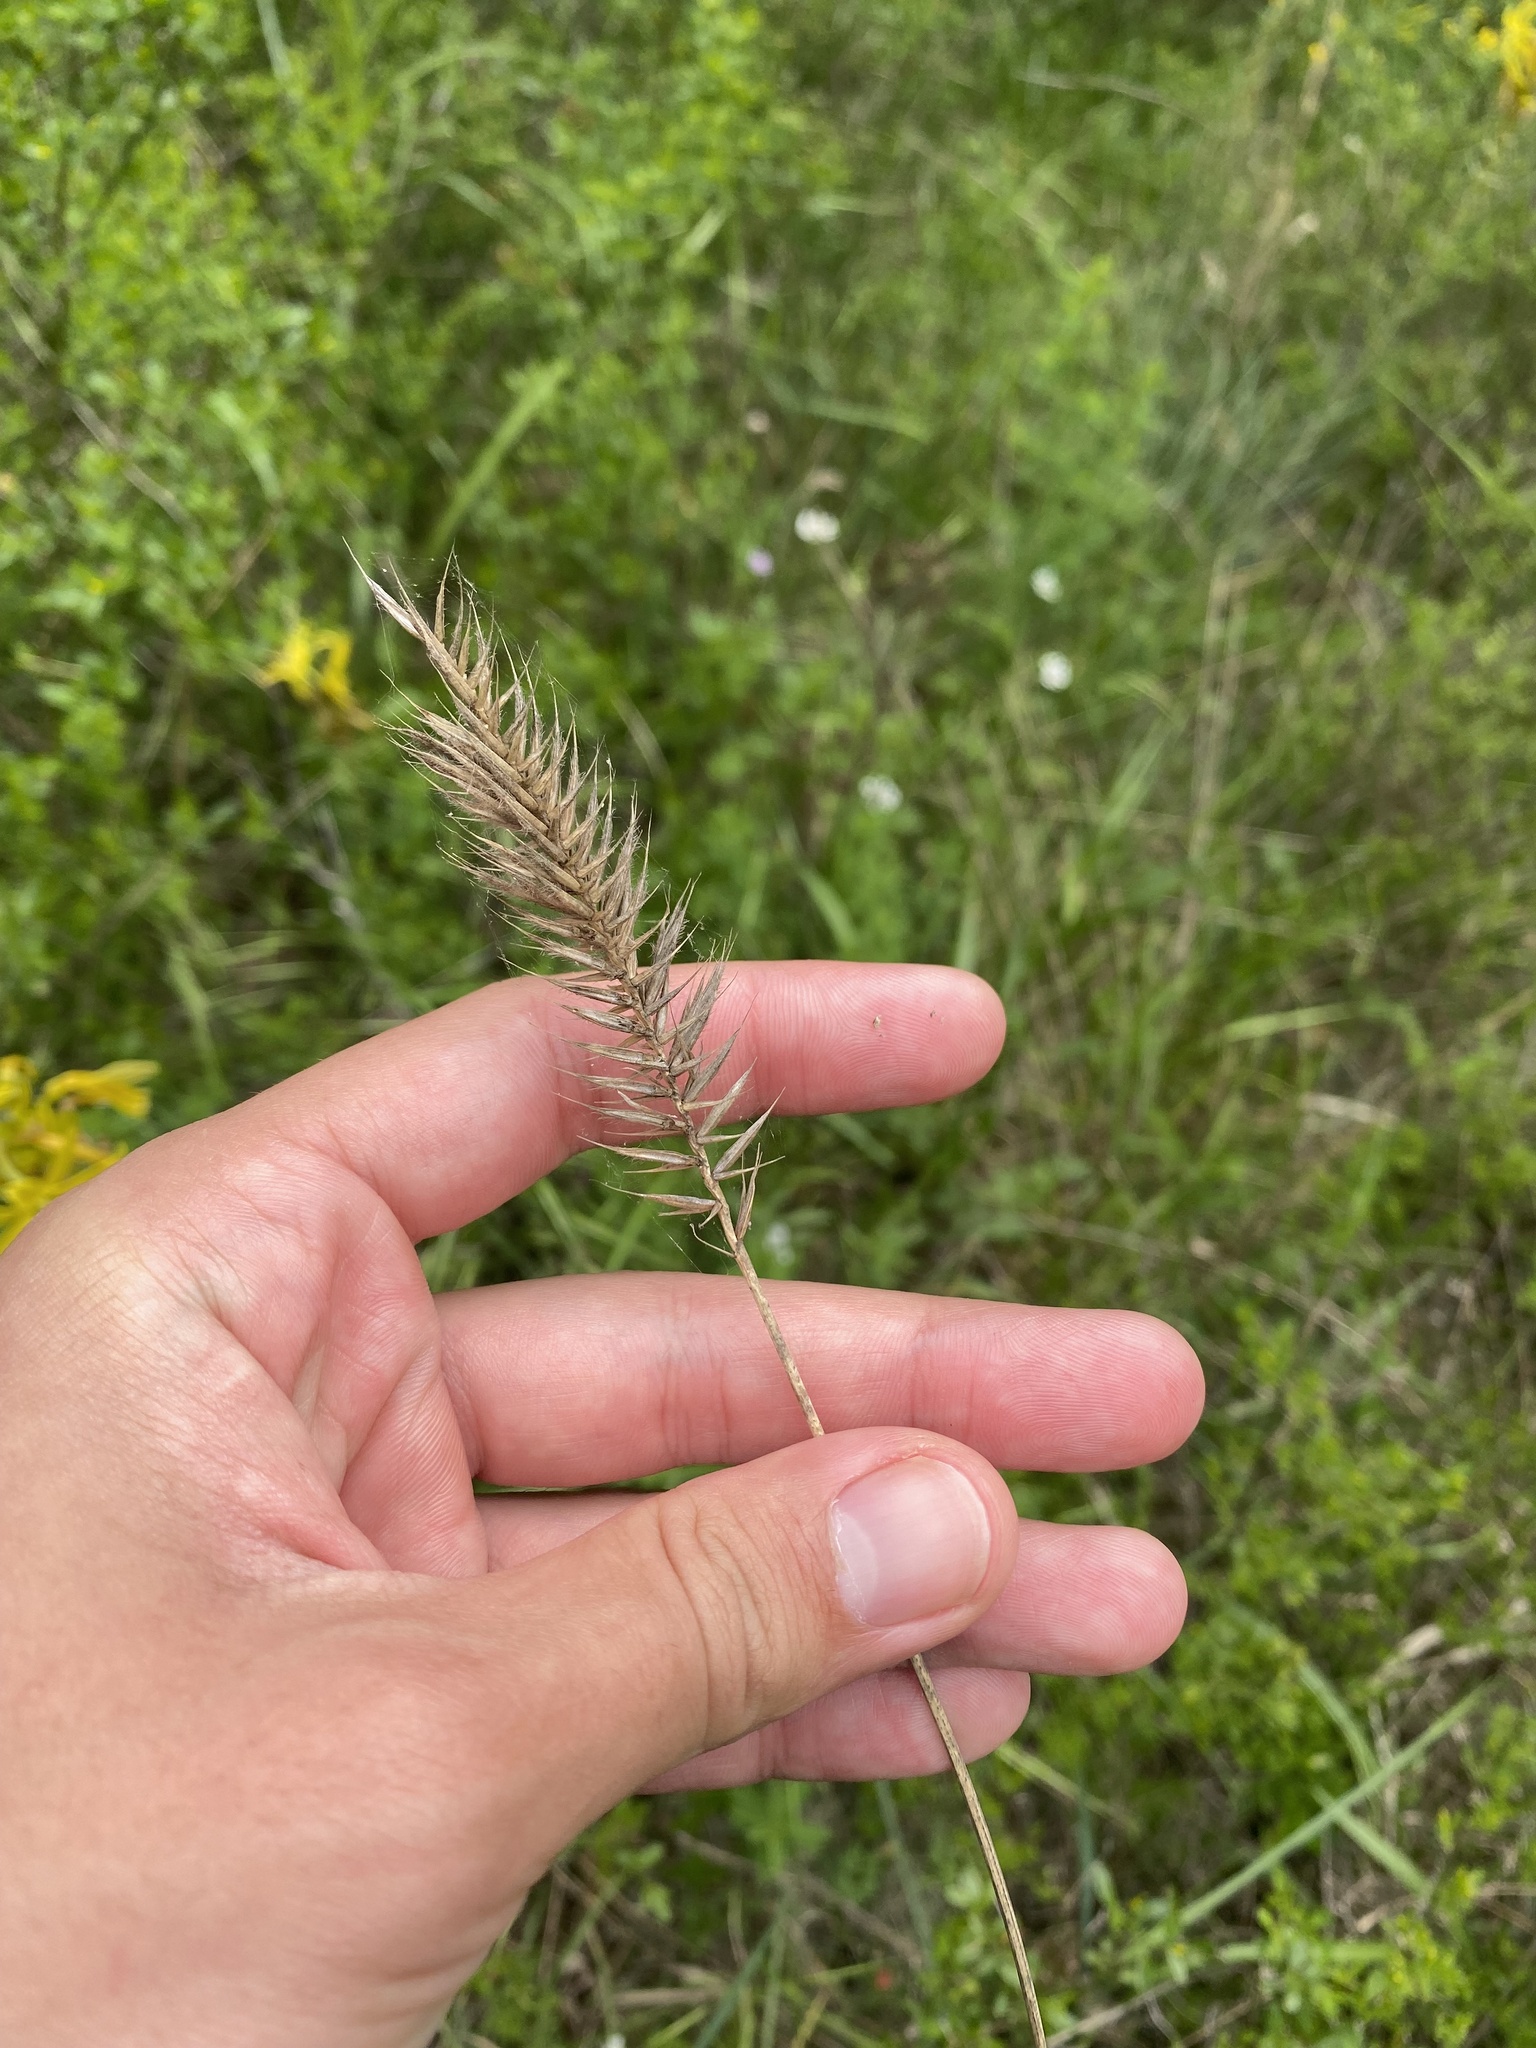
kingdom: Plantae
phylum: Tracheophyta
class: Liliopsida
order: Poales
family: Poaceae
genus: Agropyron
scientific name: Agropyron cristatum
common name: Crested wheatgrass
